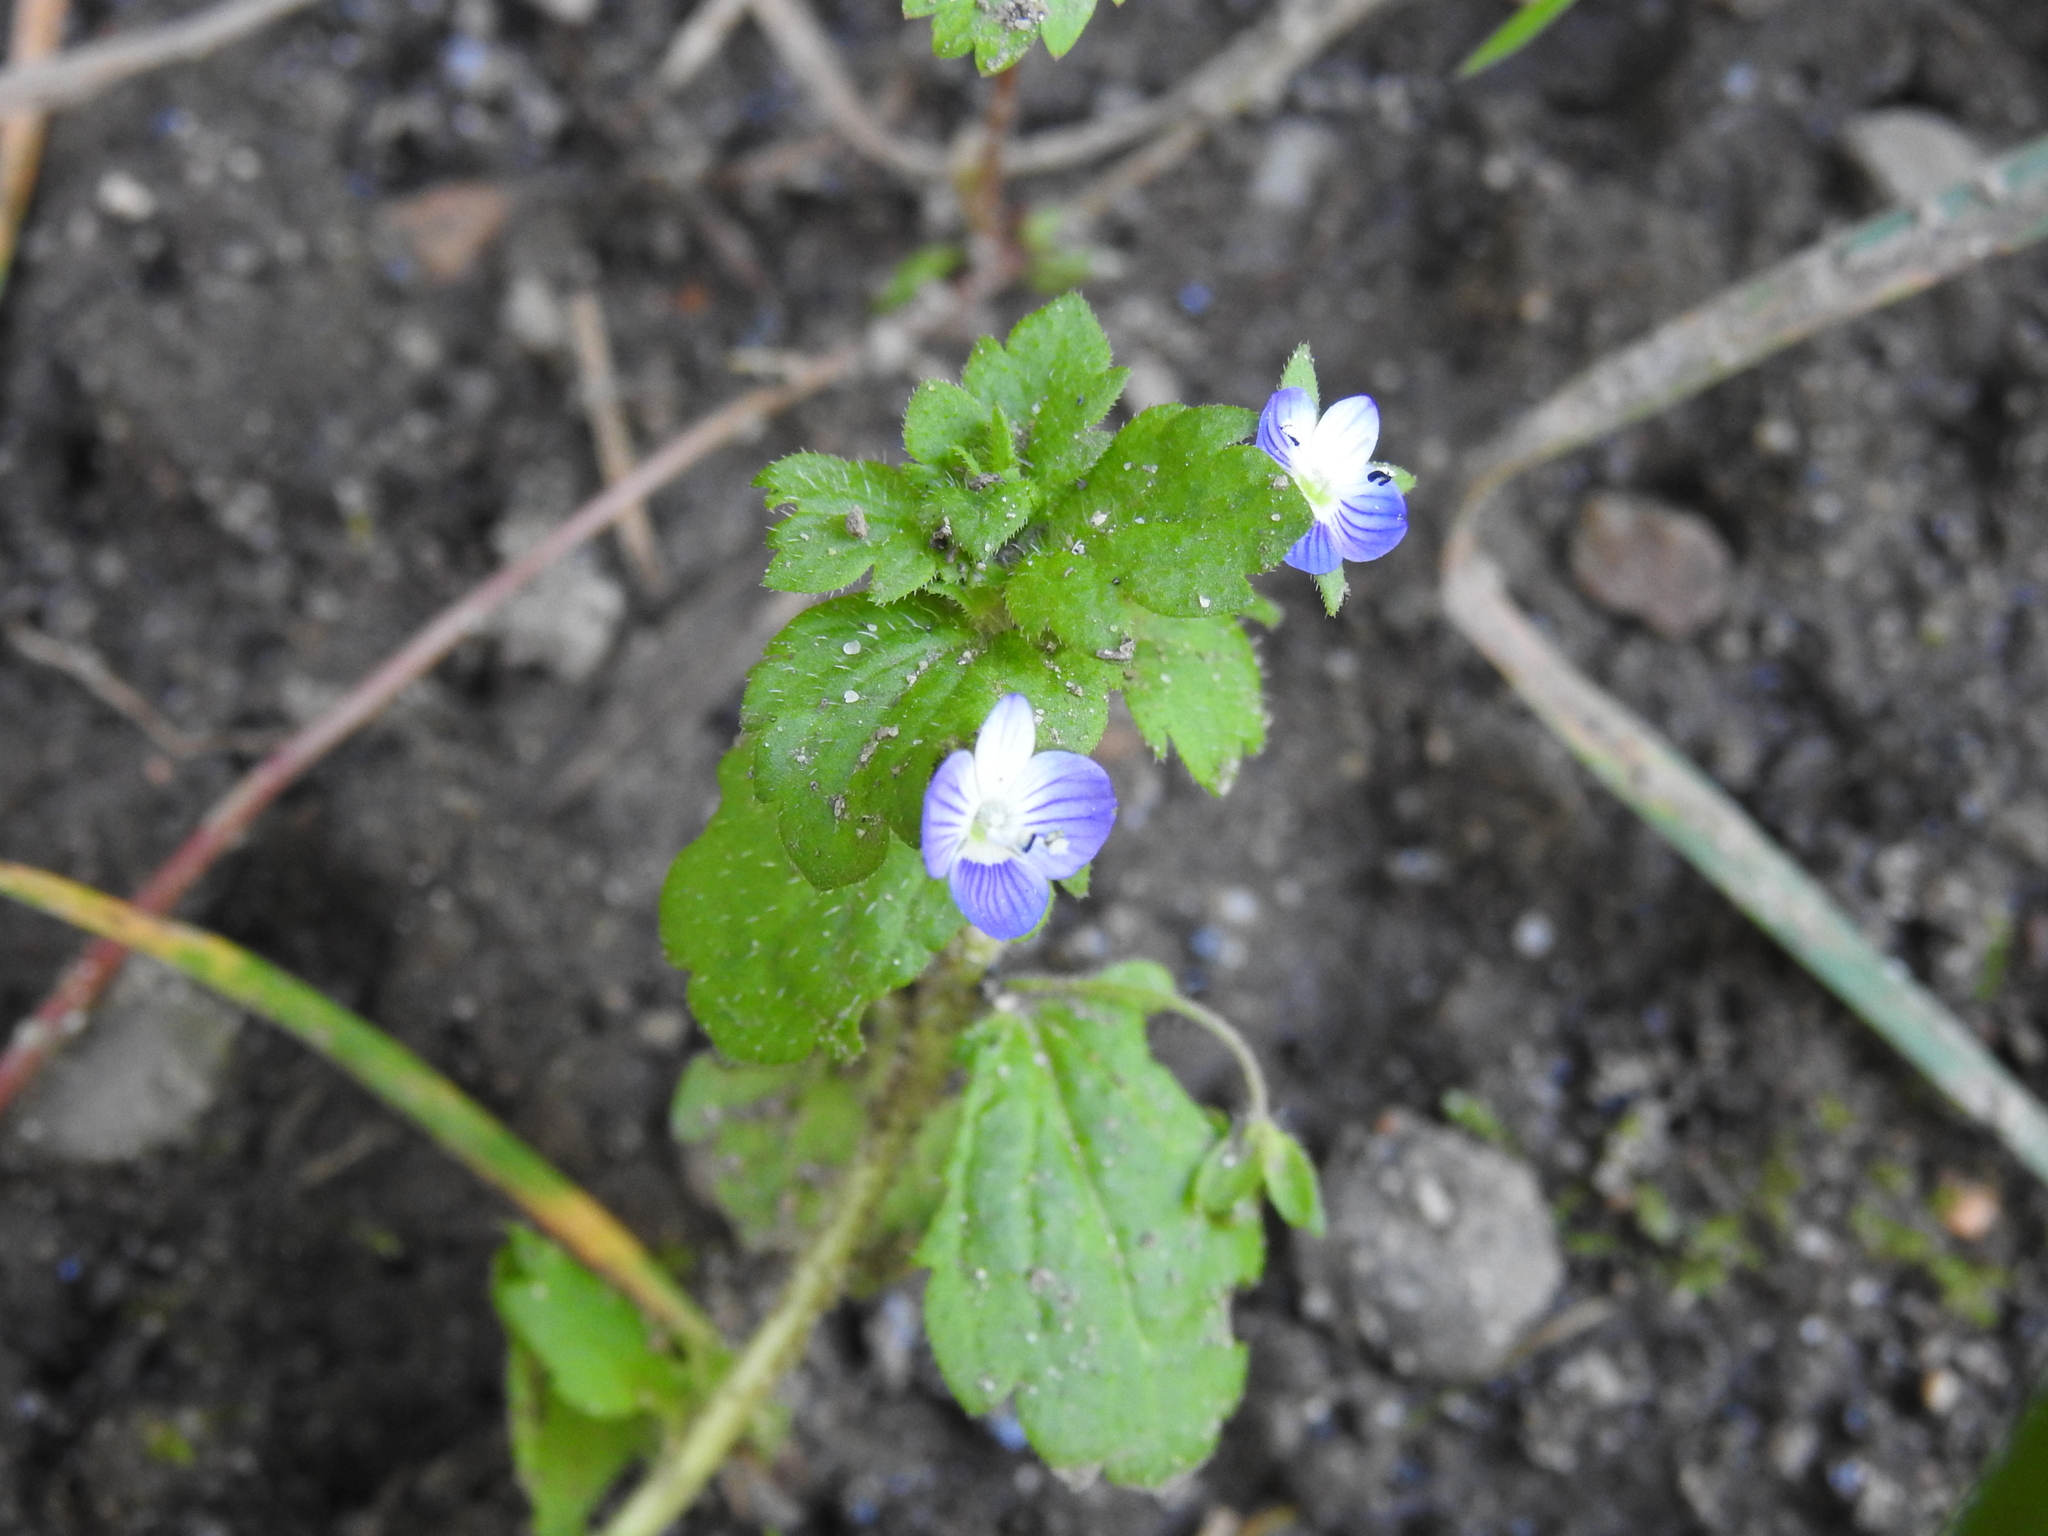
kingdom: Plantae
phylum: Tracheophyta
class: Magnoliopsida
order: Lamiales
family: Plantaginaceae
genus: Veronica
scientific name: Veronica persica
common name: Common field-speedwell
